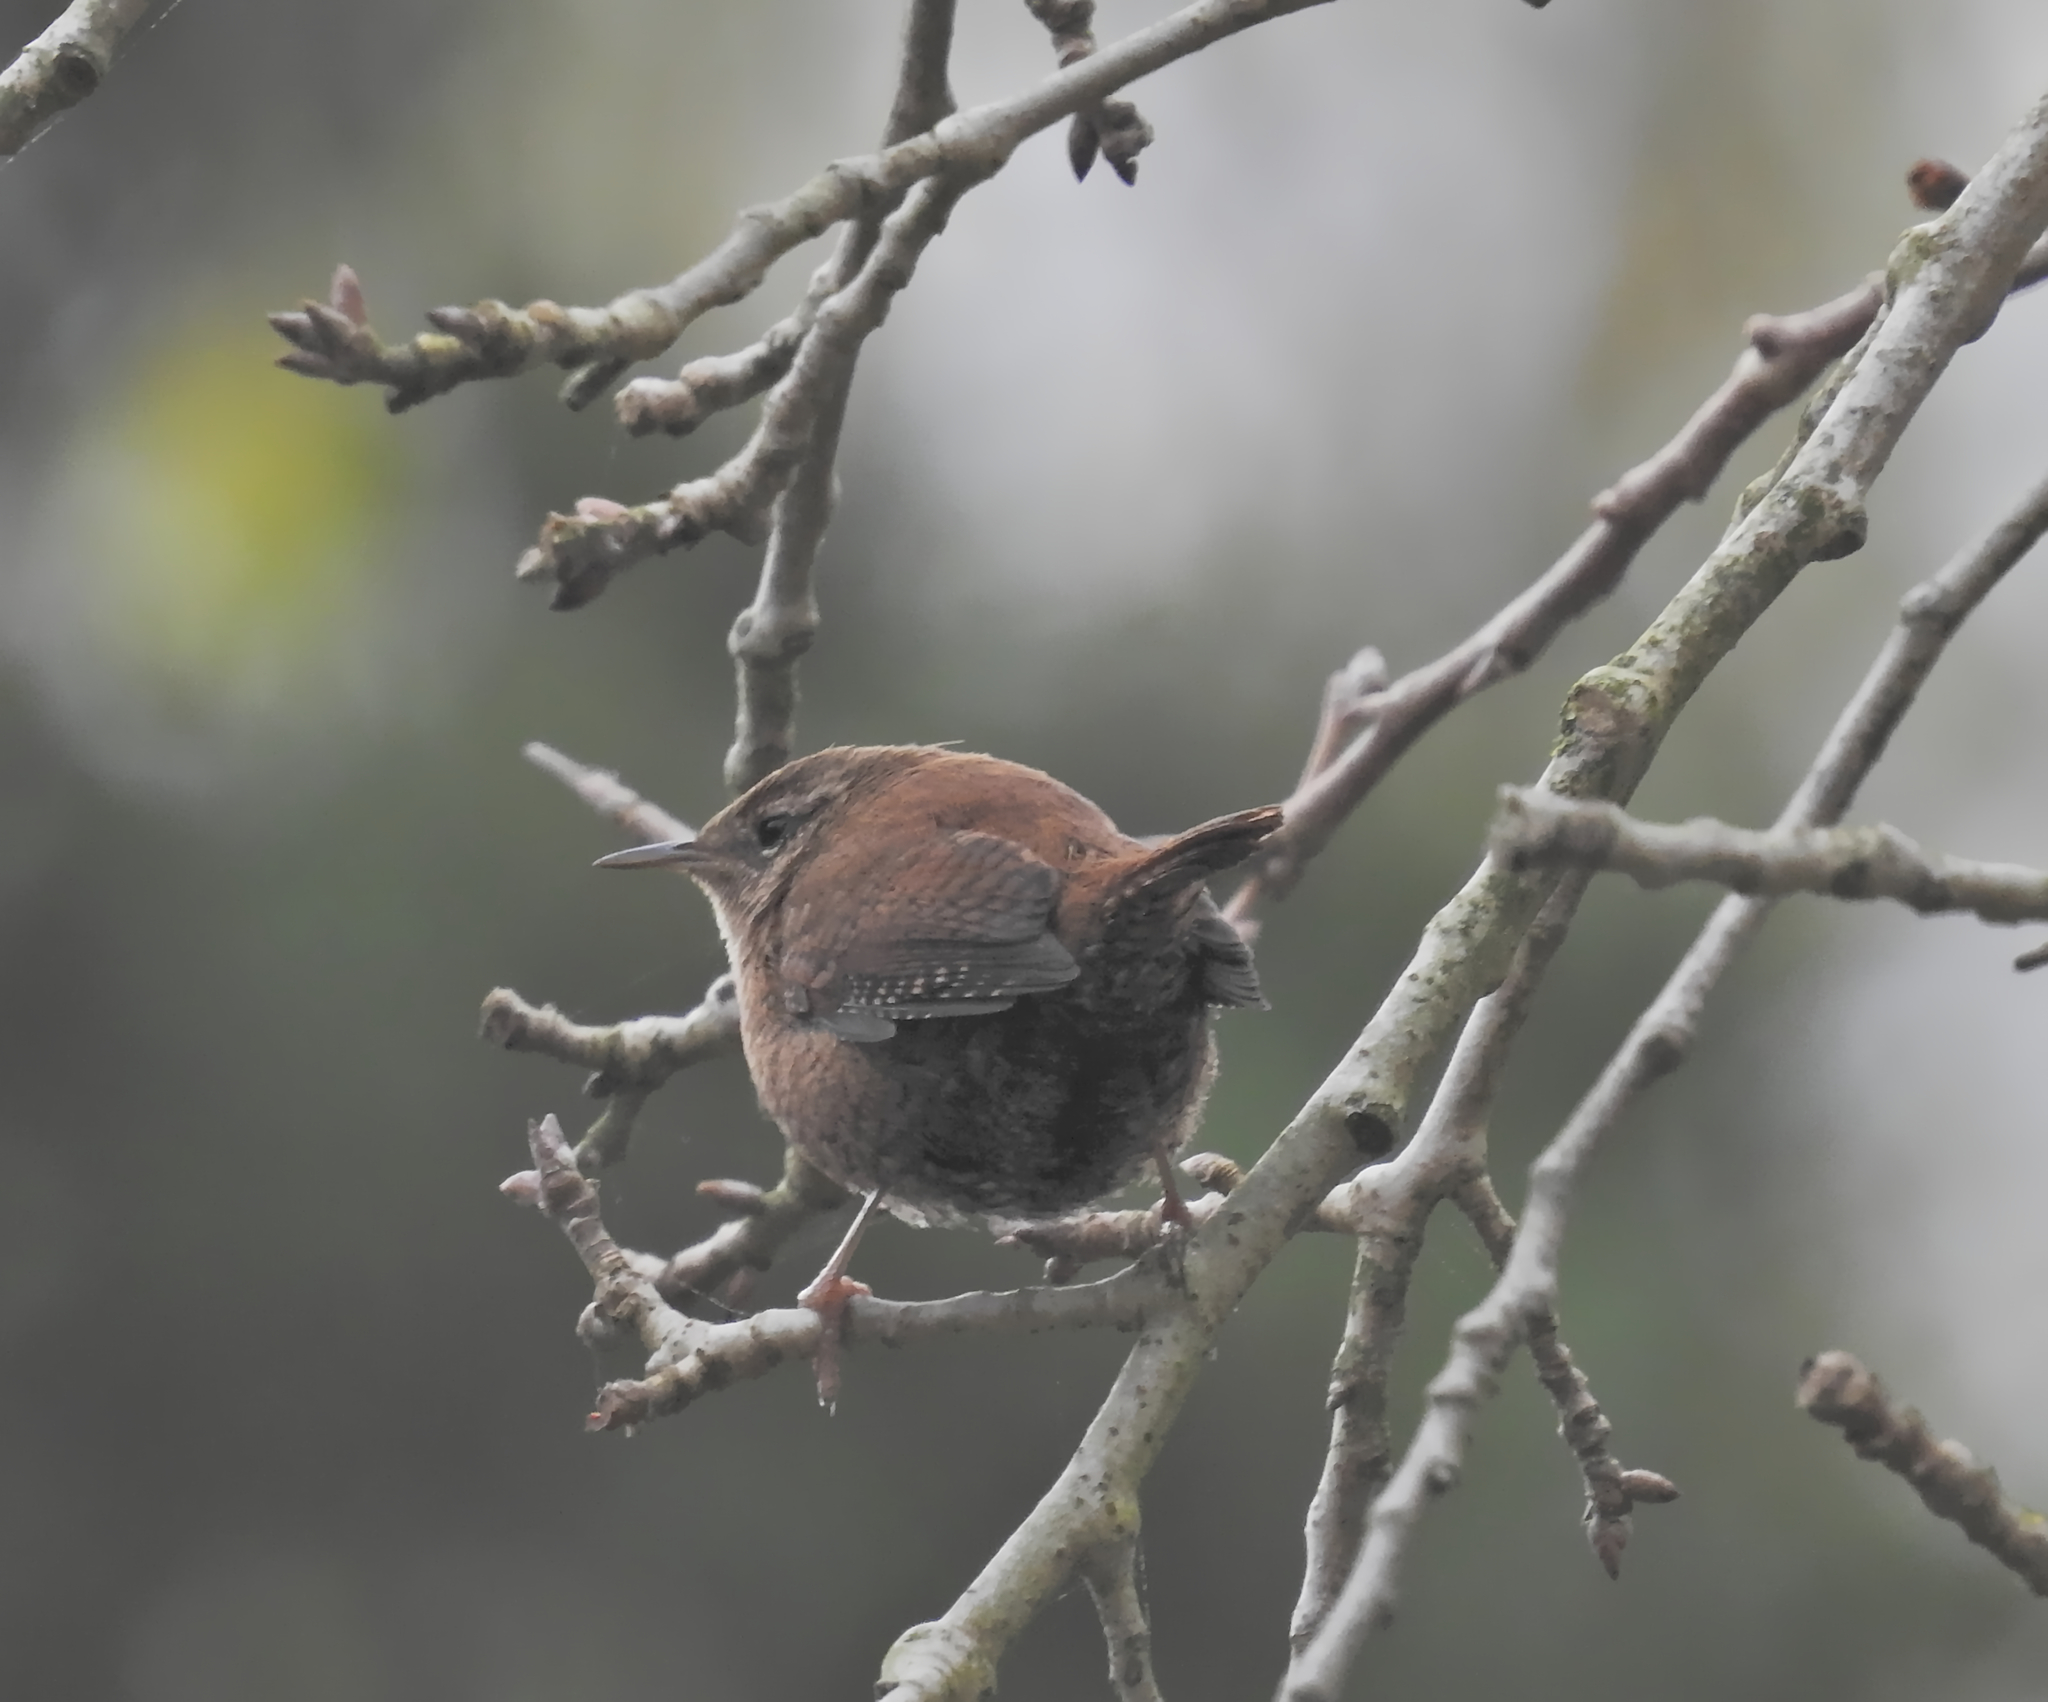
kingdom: Animalia
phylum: Chordata
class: Aves
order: Passeriformes
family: Troglodytidae
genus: Troglodytes
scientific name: Troglodytes troglodytes
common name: Eurasian wren
